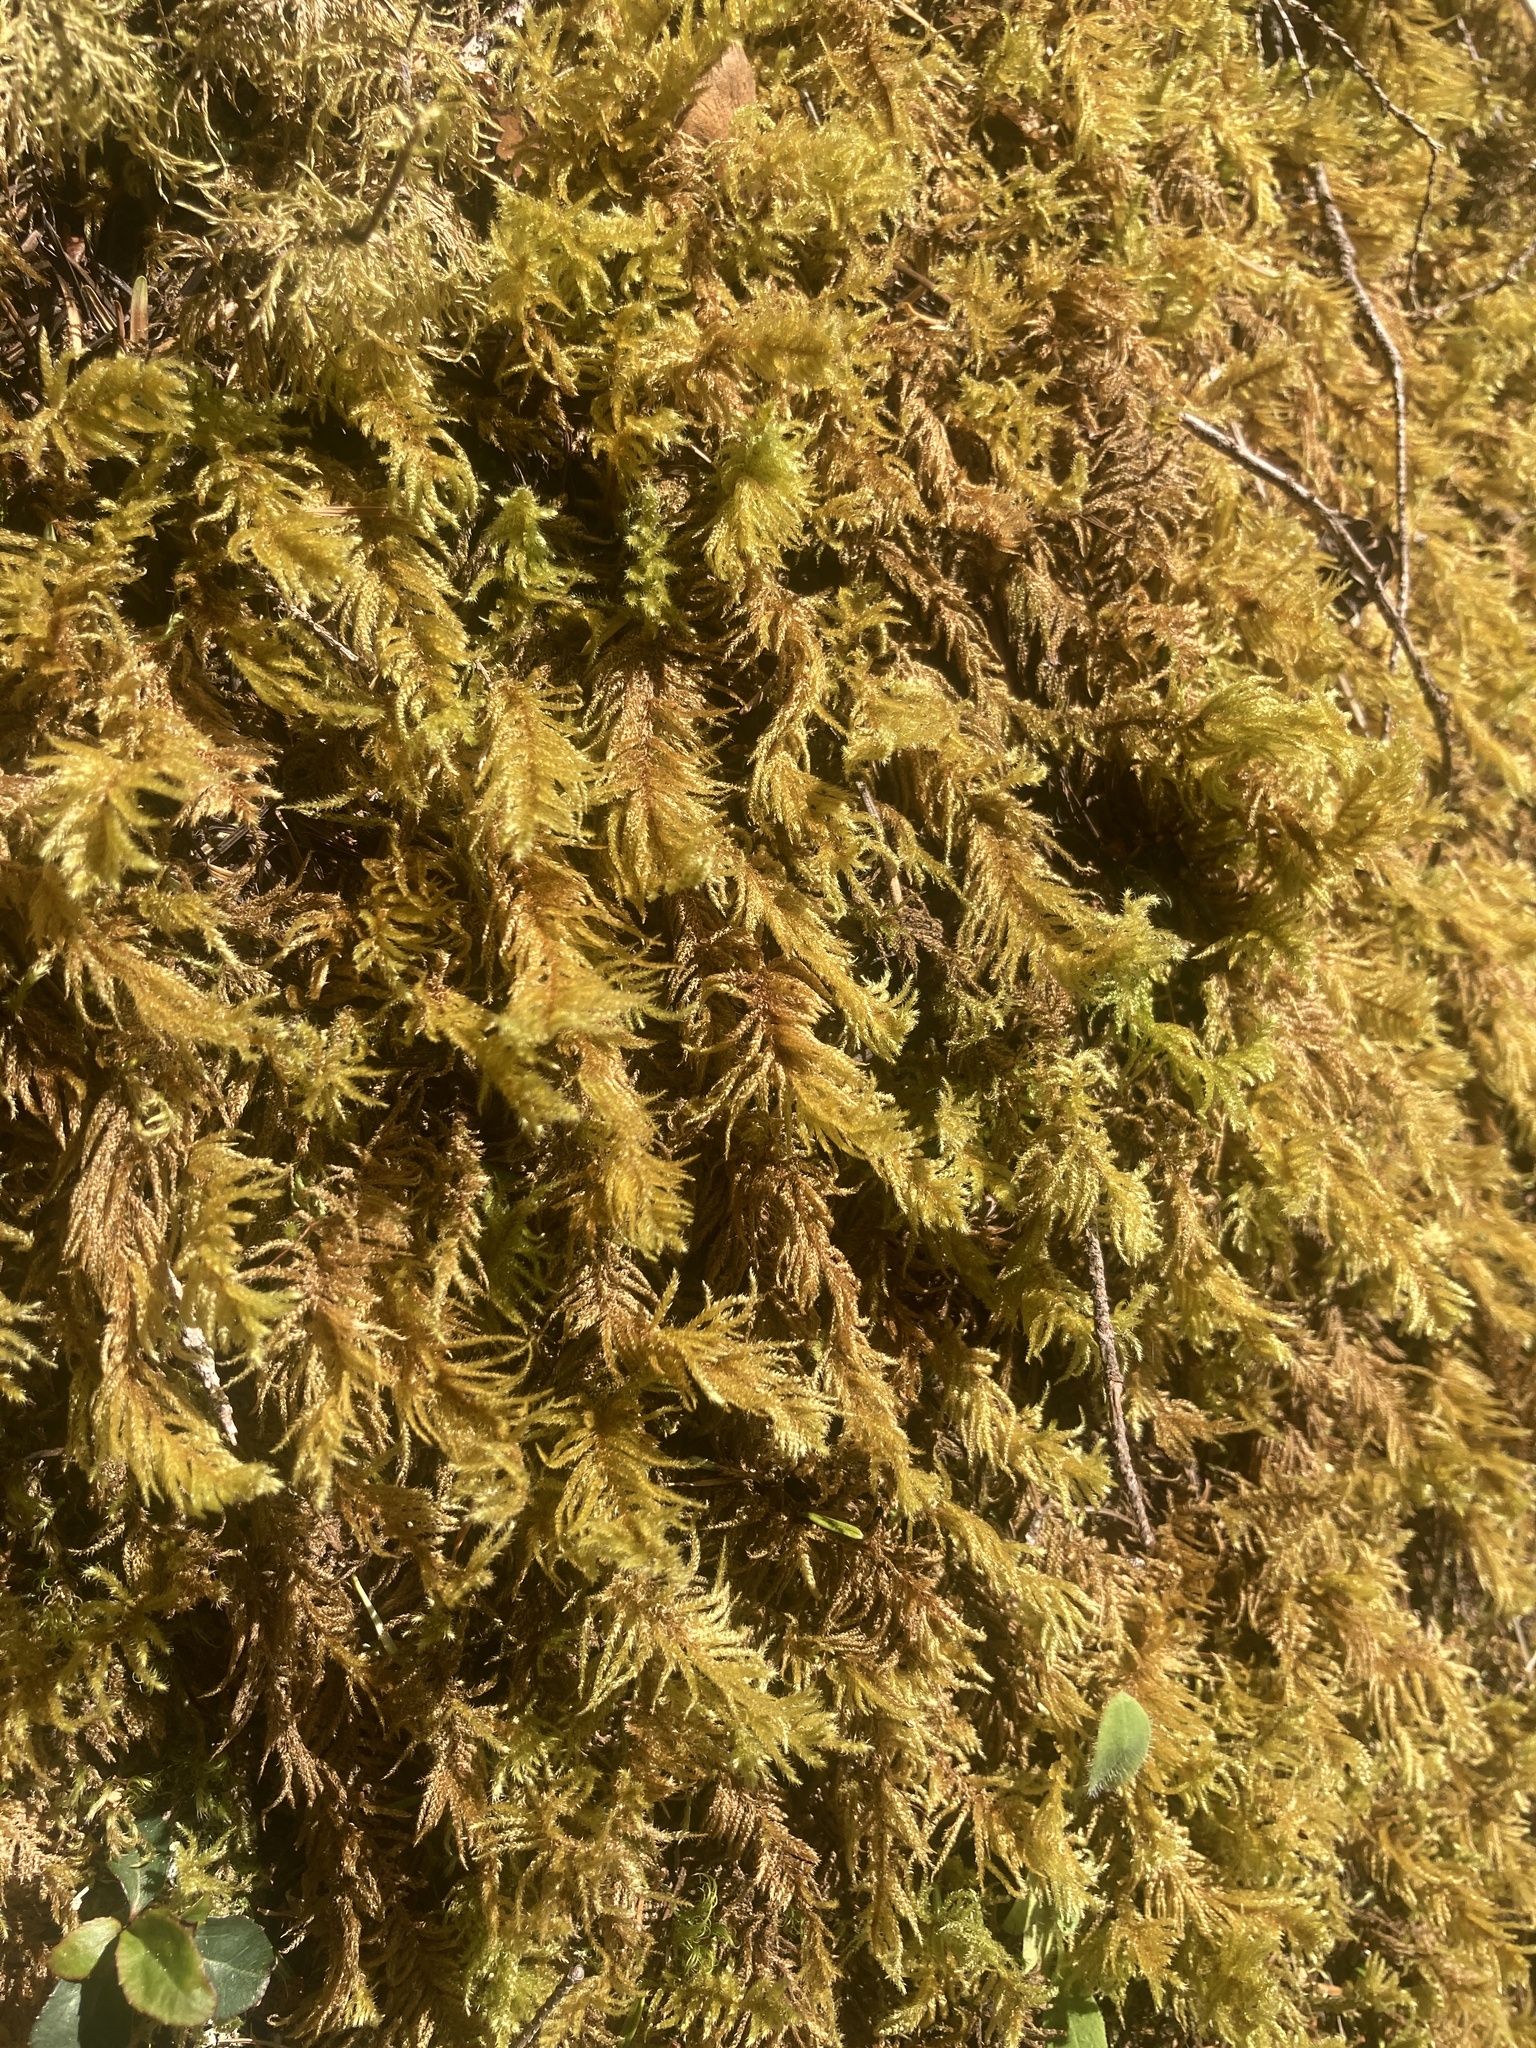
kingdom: Plantae
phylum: Bryophyta
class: Bryopsida
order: Hypnales
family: Brachytheciaceae
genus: Kindbergia
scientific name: Kindbergia oregana
